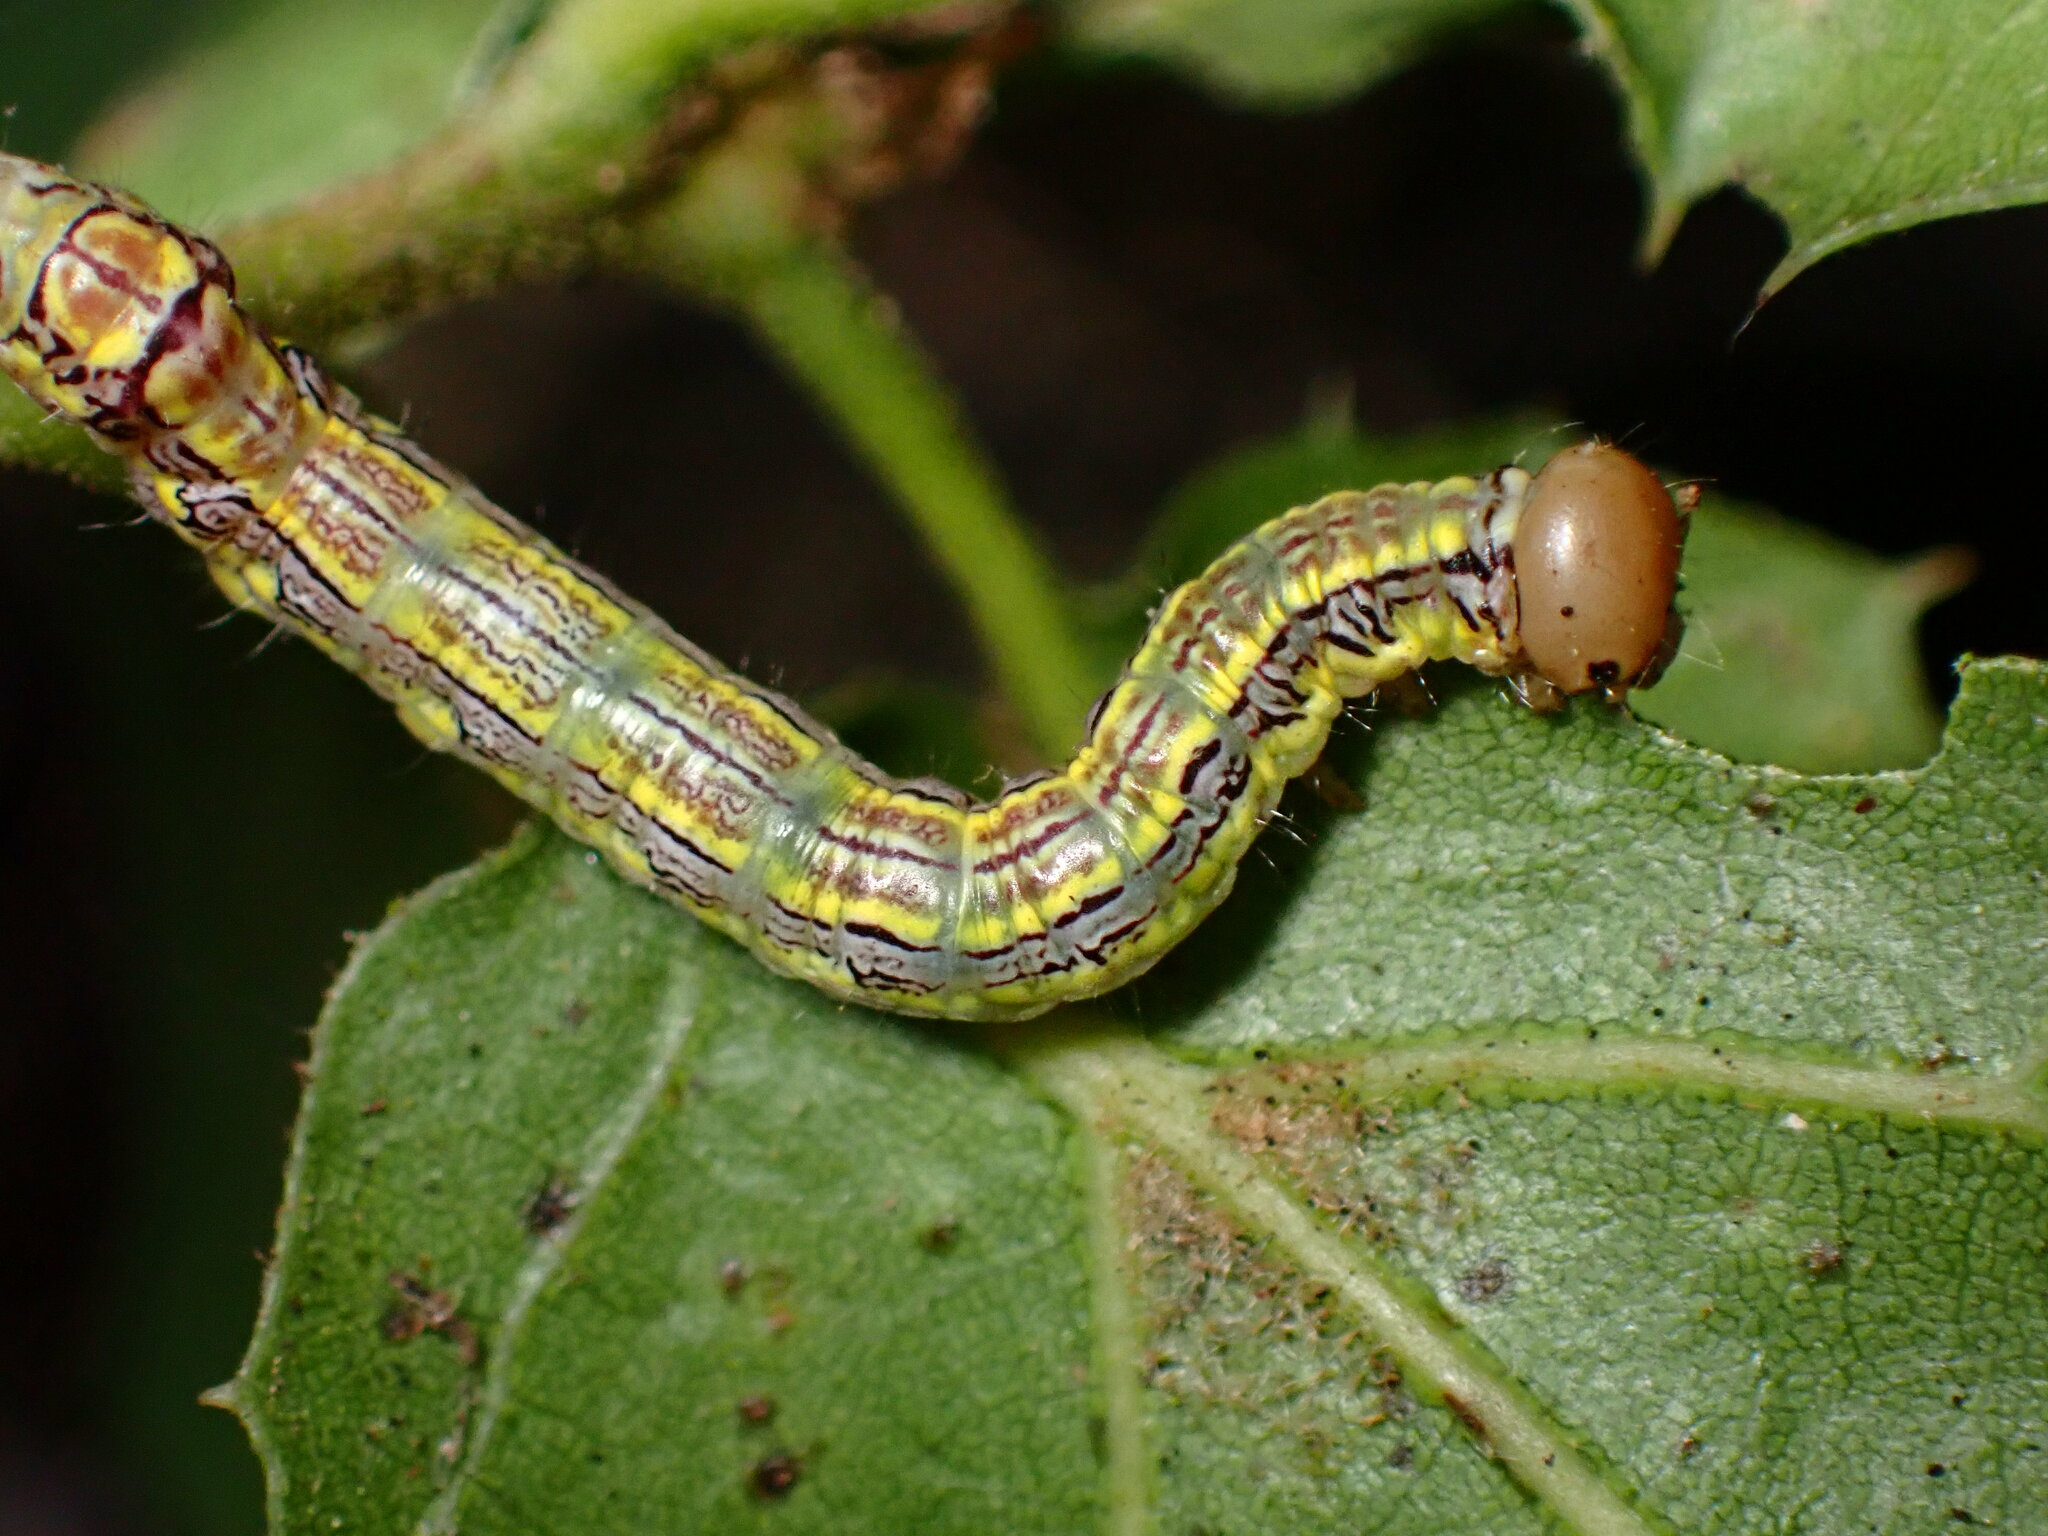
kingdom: Animalia
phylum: Arthropoda
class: Insecta
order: Lepidoptera
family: Notodontidae
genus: Phryganidia
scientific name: Phryganidia californica
